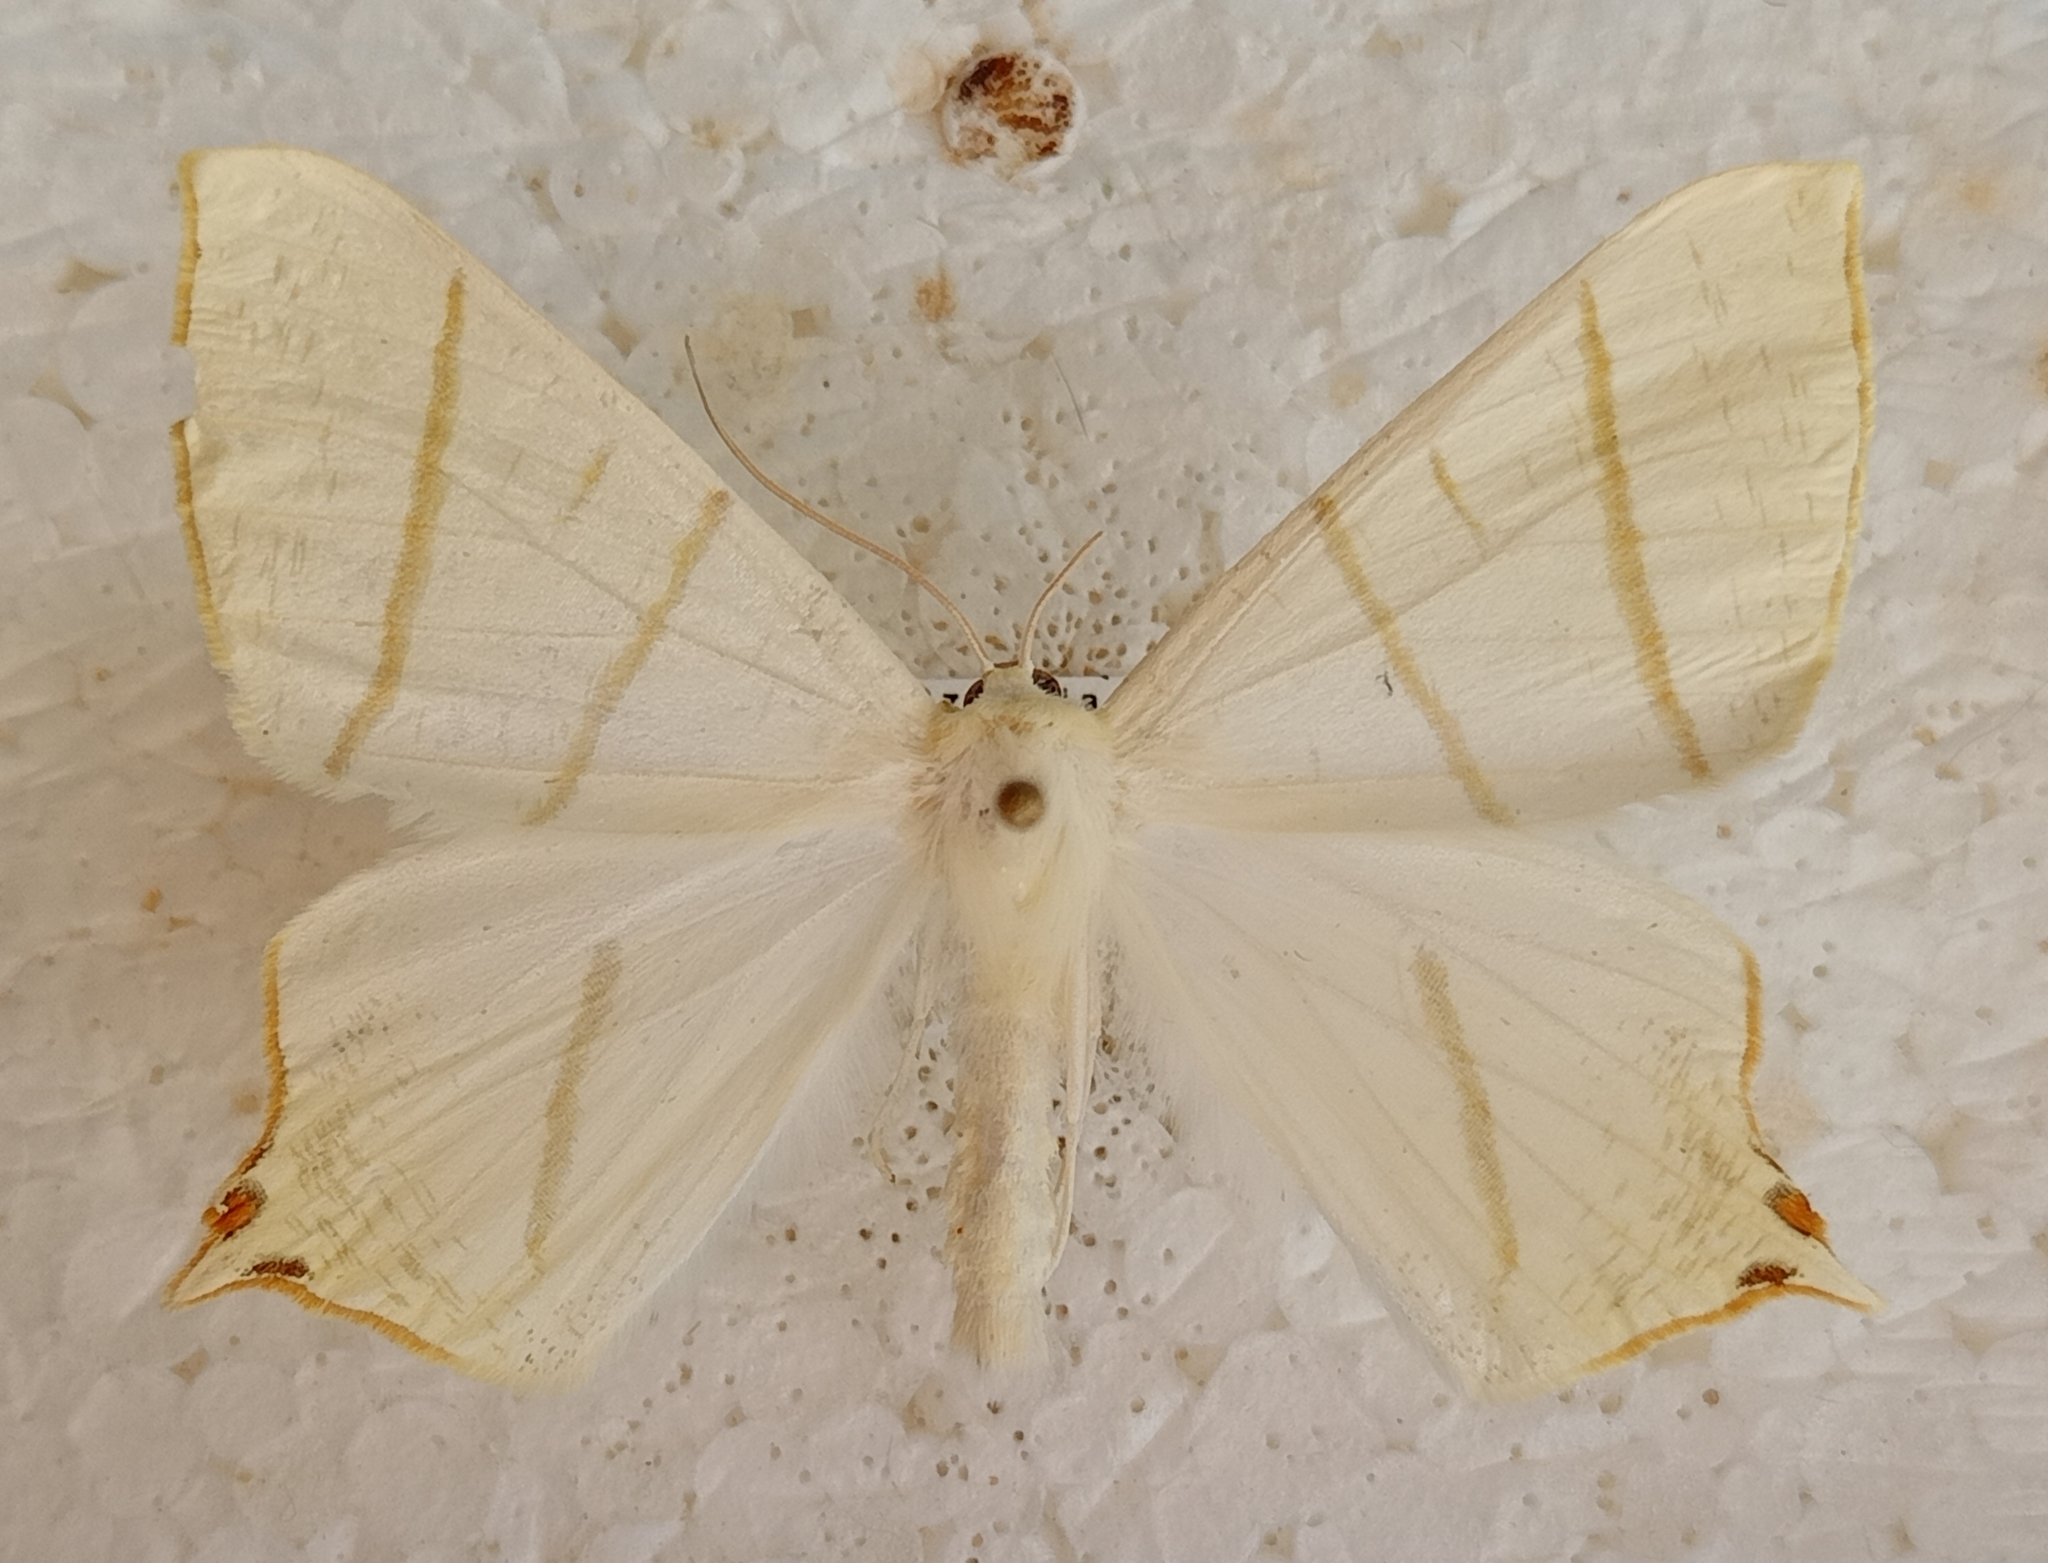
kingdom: Animalia
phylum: Arthropoda
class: Insecta
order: Lepidoptera
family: Geometridae
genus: Ourapteryx
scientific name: Ourapteryx sambucaria
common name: Swallow-tailed moth
